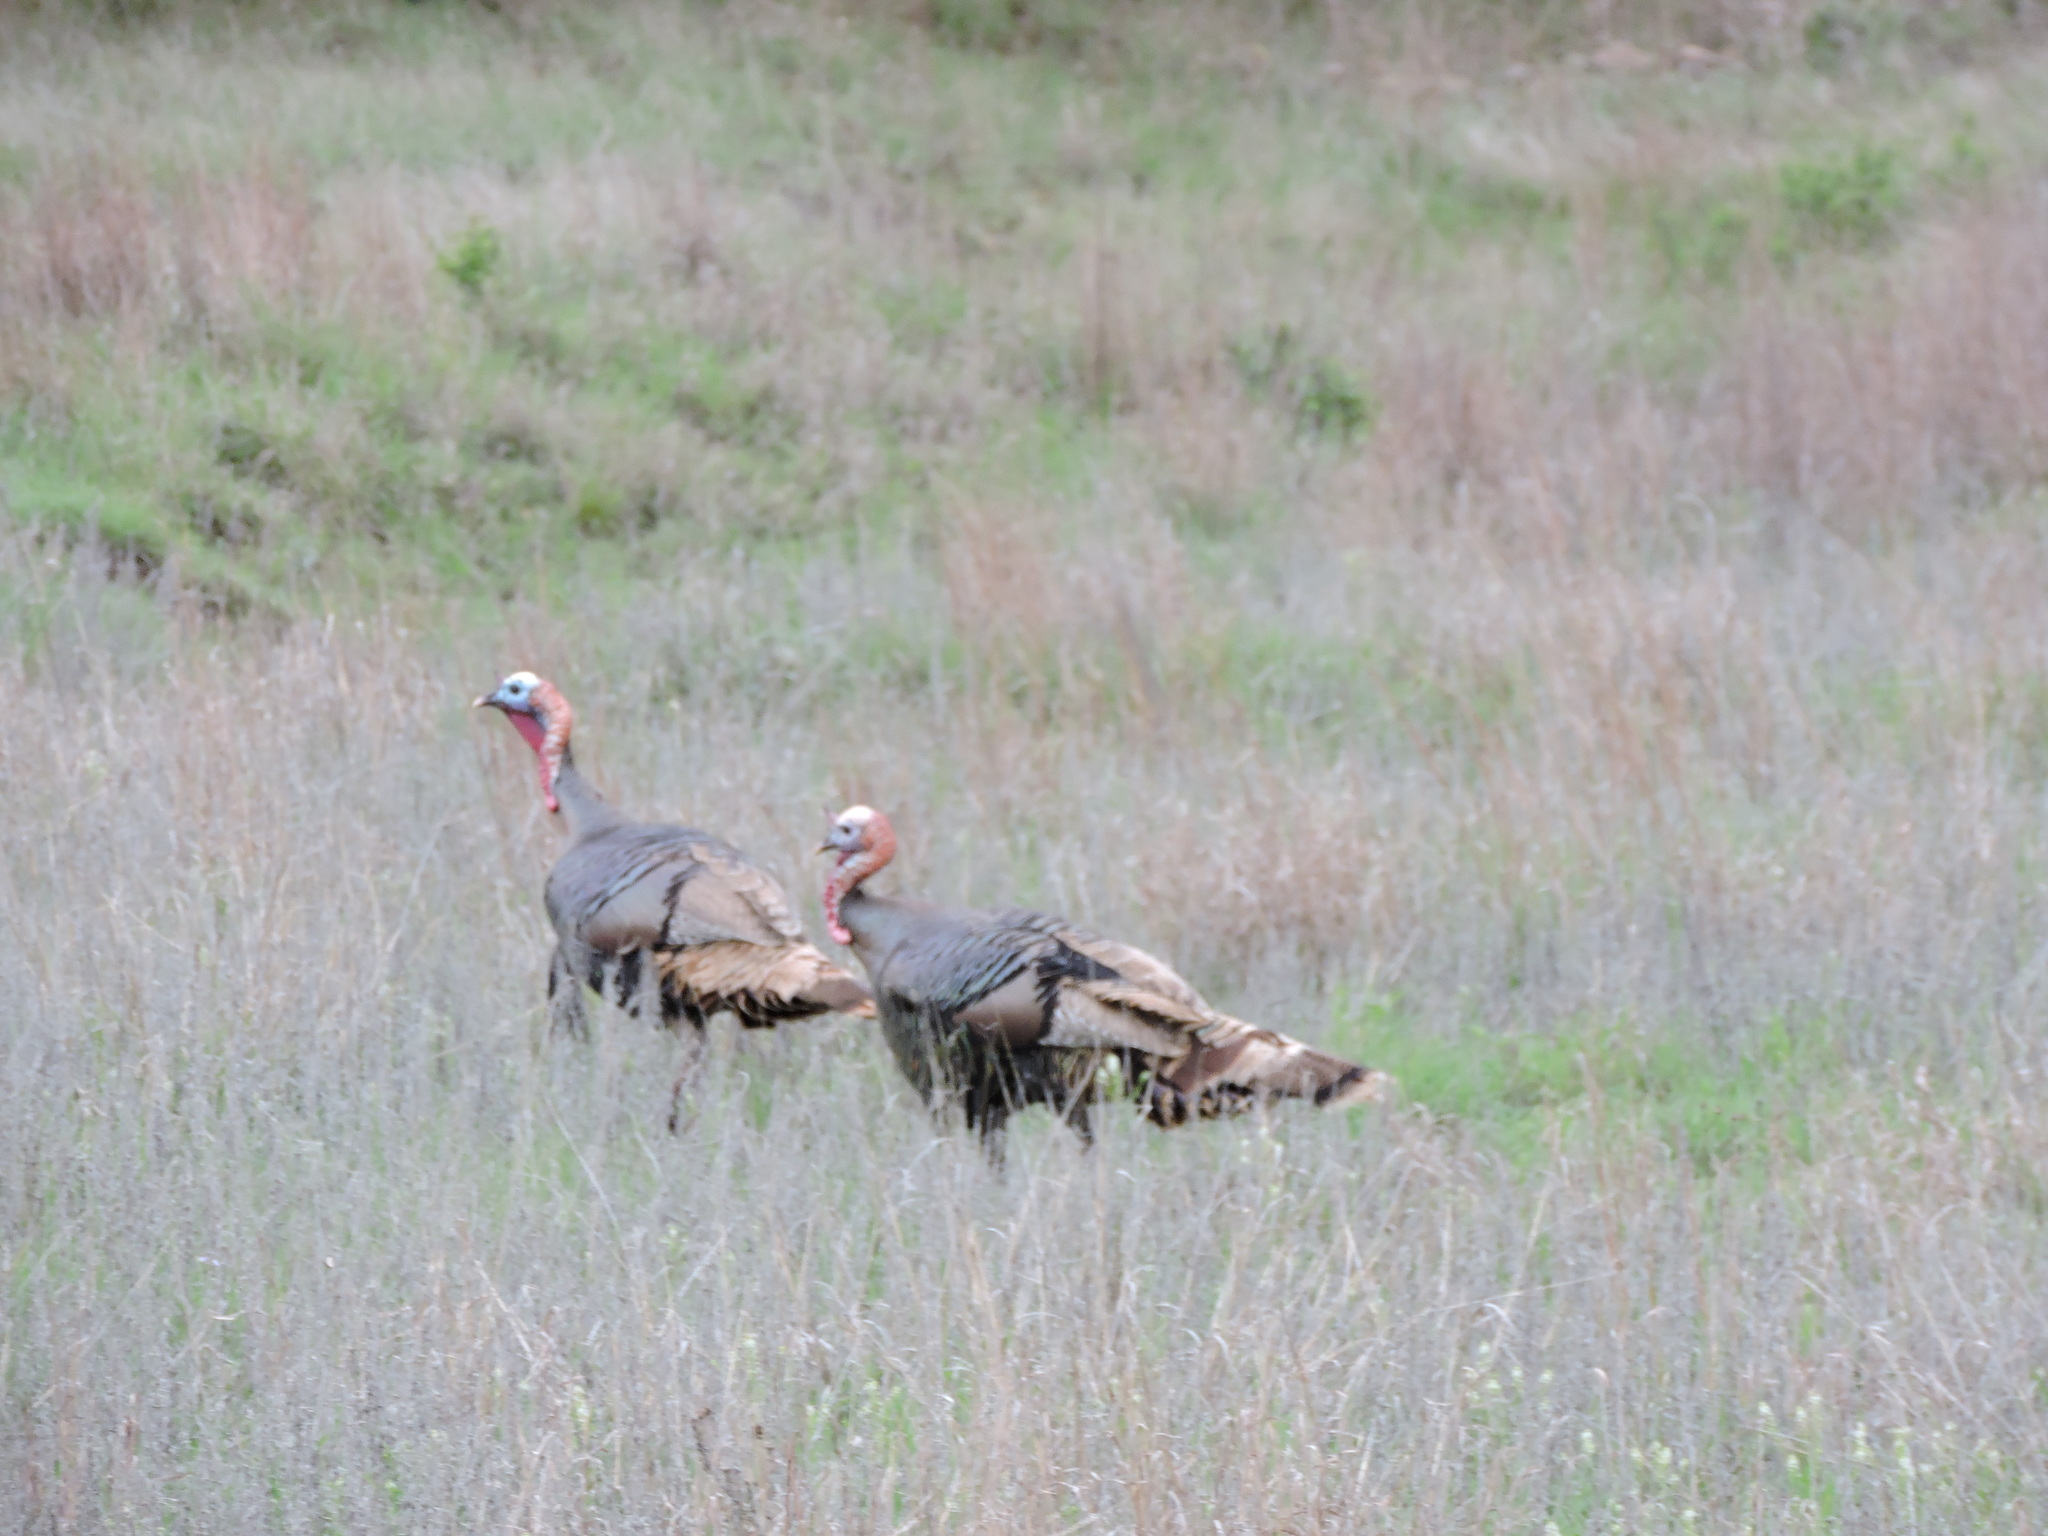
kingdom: Animalia
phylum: Chordata
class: Aves
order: Galliformes
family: Phasianidae
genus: Meleagris
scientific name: Meleagris gallopavo
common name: Wild turkey
